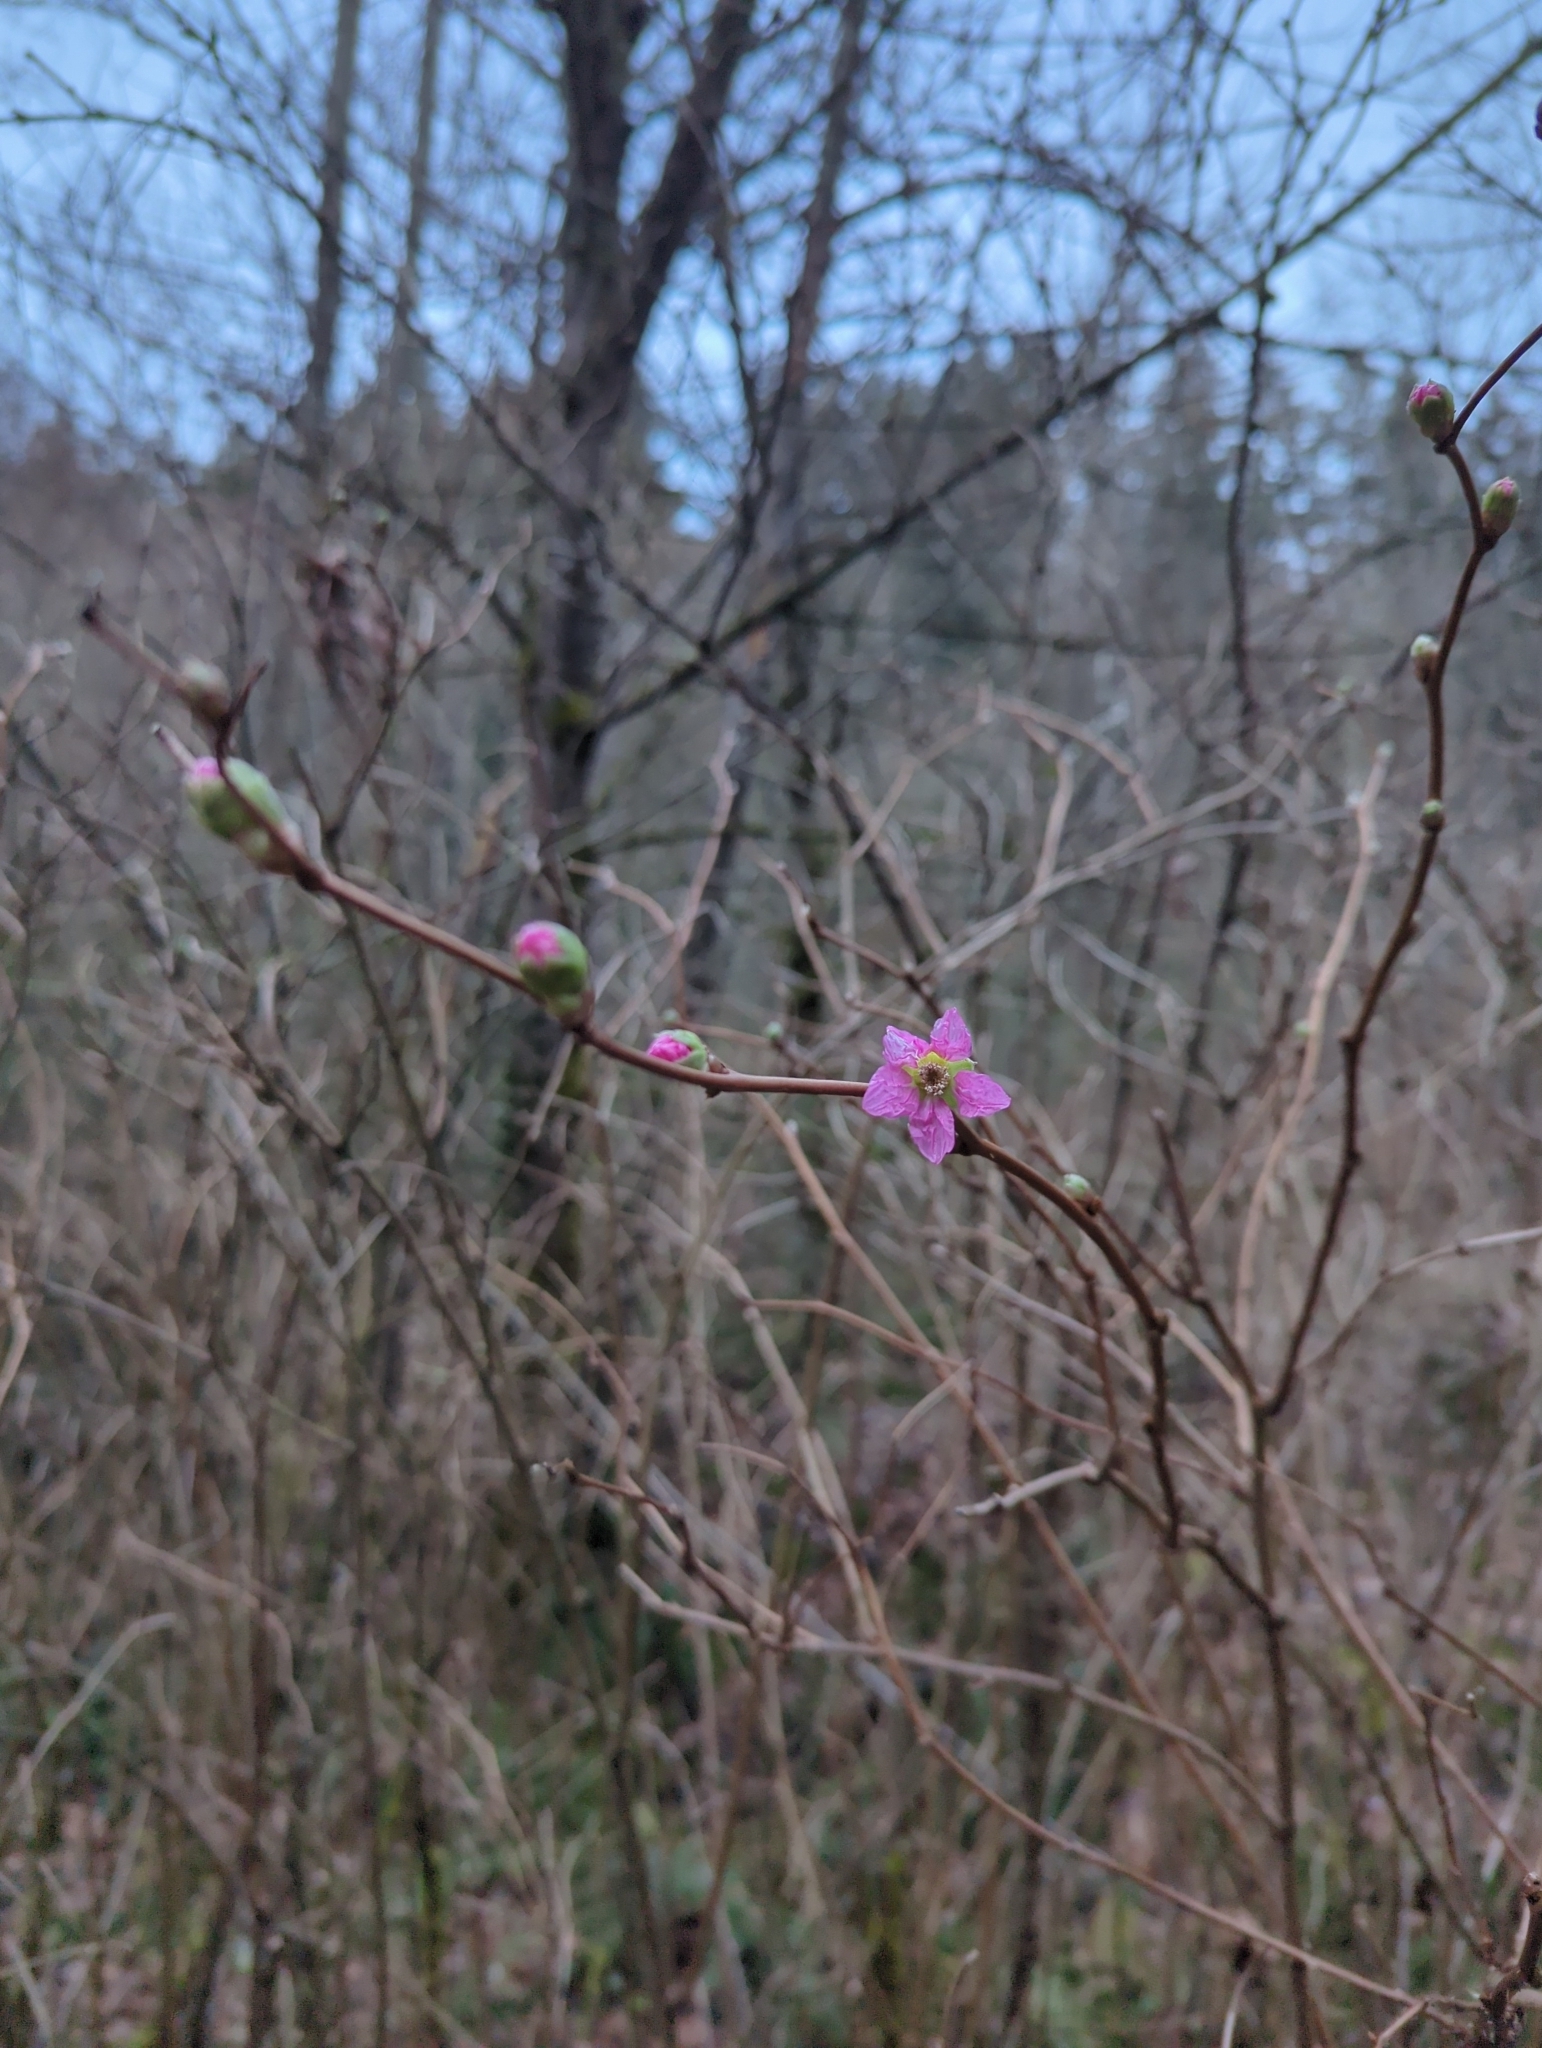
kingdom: Plantae
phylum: Tracheophyta
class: Magnoliopsida
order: Rosales
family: Rosaceae
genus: Rubus
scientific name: Rubus spectabilis
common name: Salmonberry
